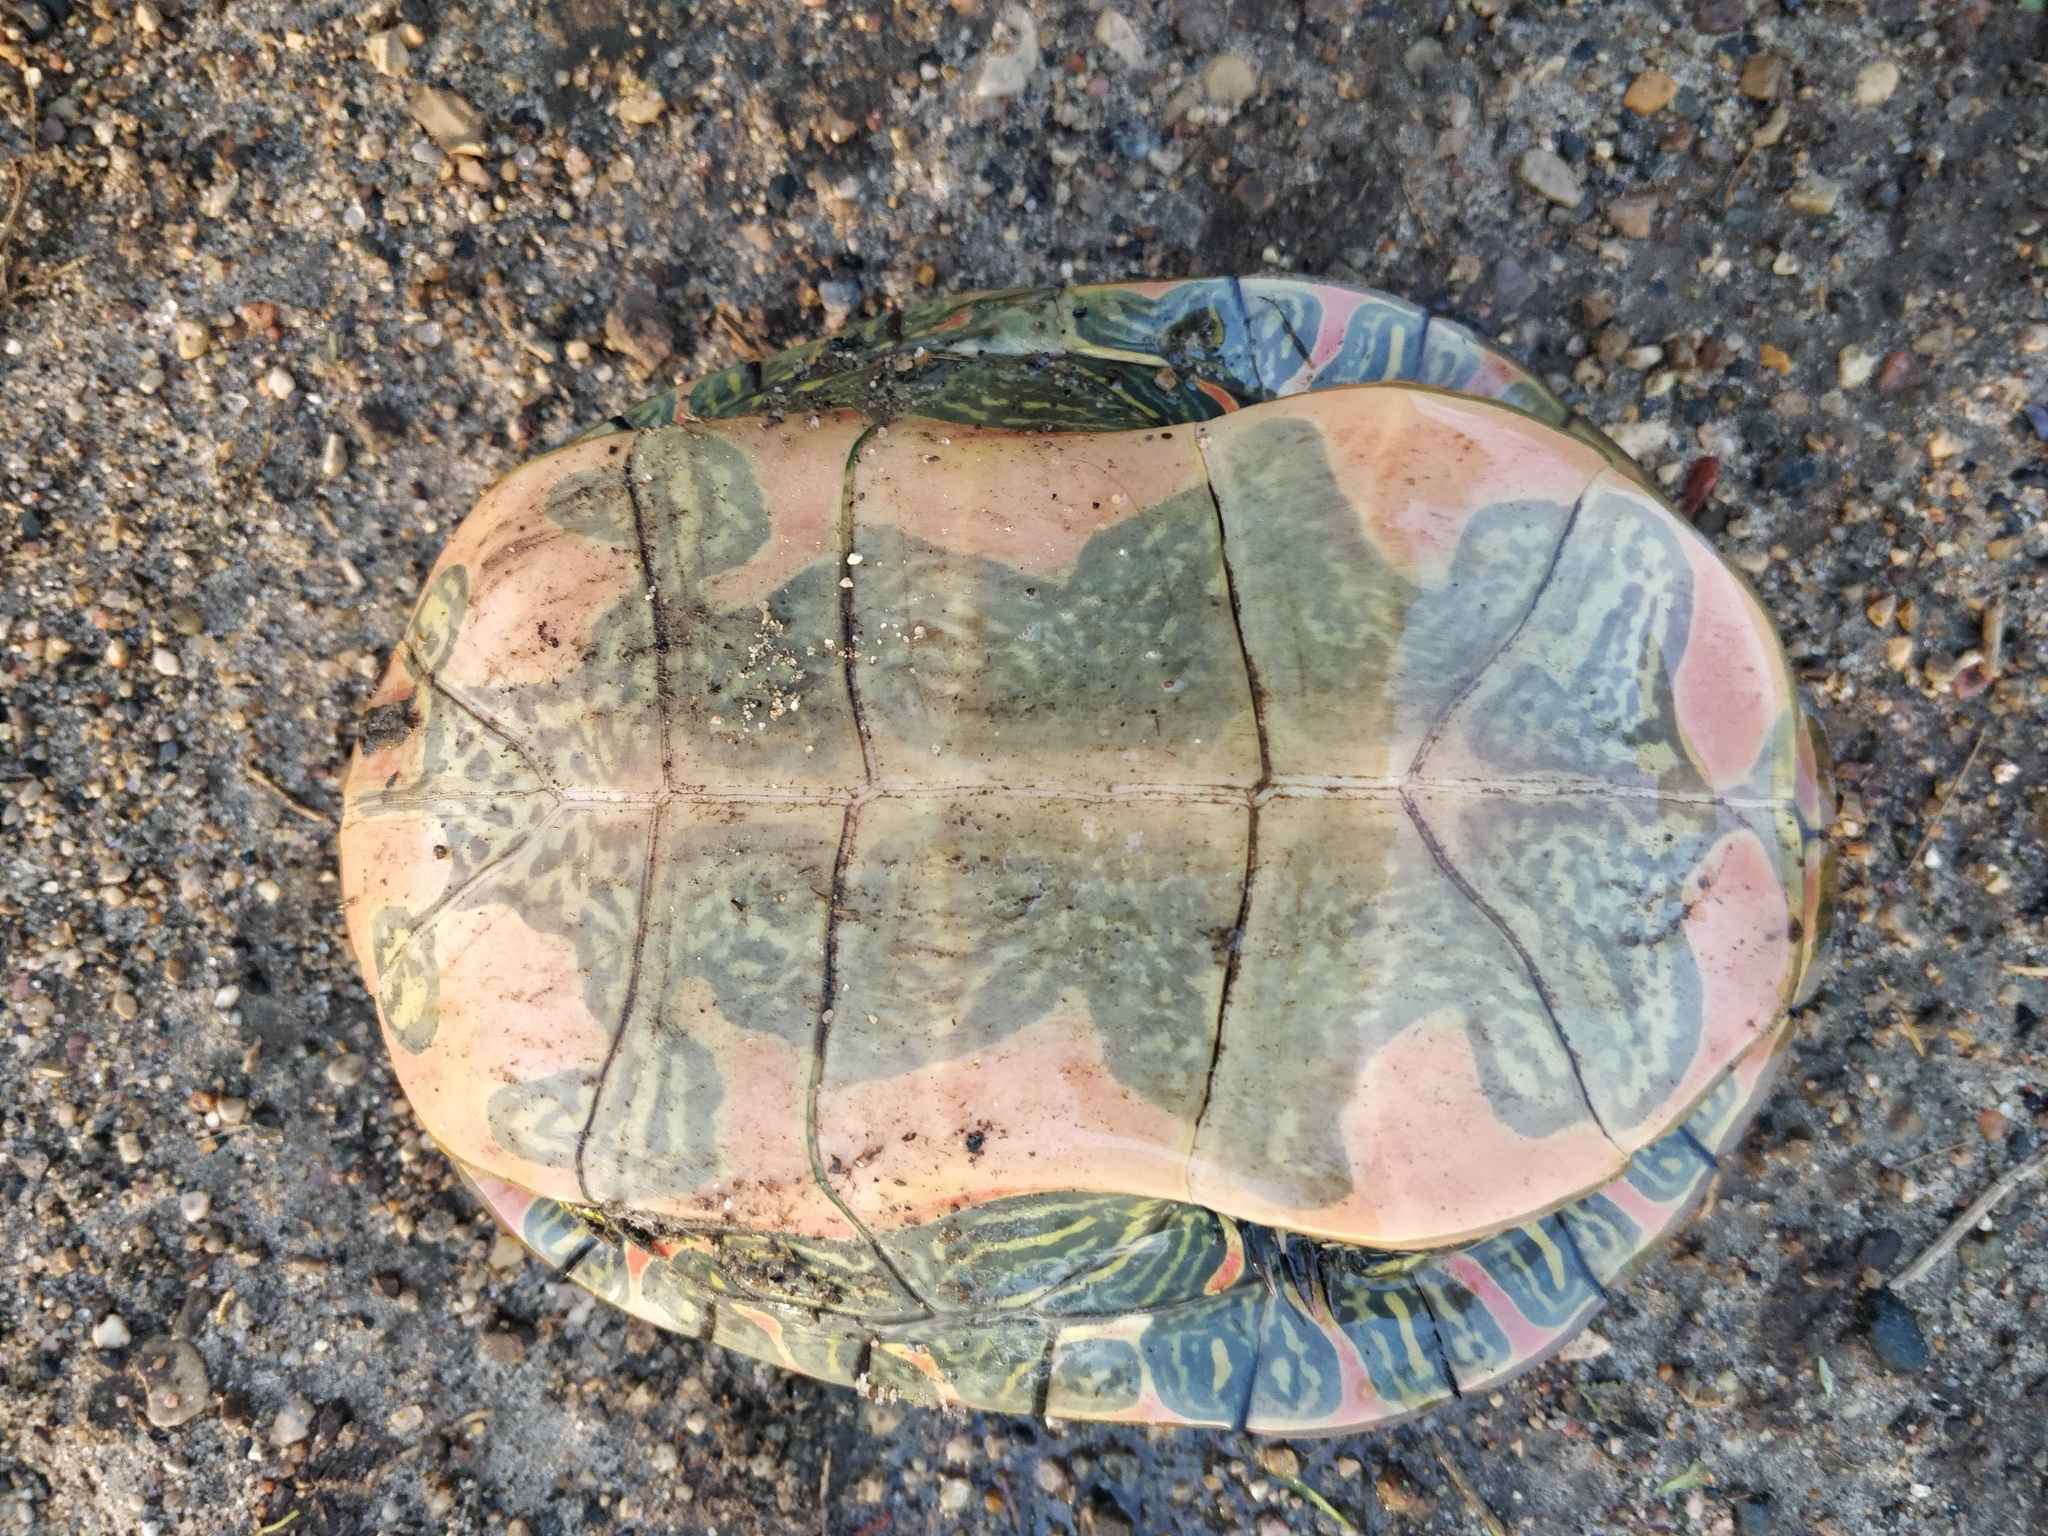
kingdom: Animalia
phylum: Chordata
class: Testudines
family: Emydidae
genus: Chrysemys
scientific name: Chrysemys picta
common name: Painted turtle
